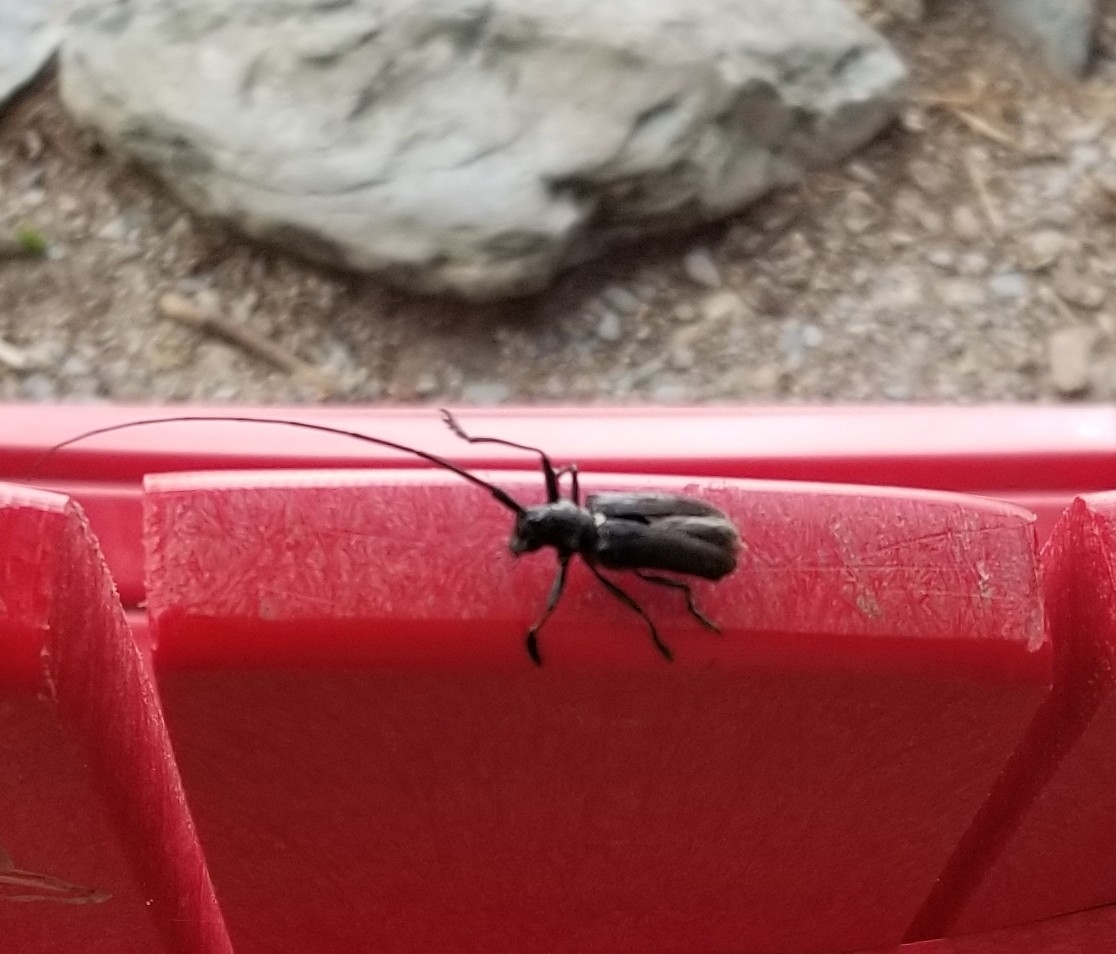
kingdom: Animalia
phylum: Arthropoda
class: Insecta
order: Coleoptera
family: Cerambycidae
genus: Monochamus
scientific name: Monochamus scutellatus
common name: White-spotted sawyer beetle
